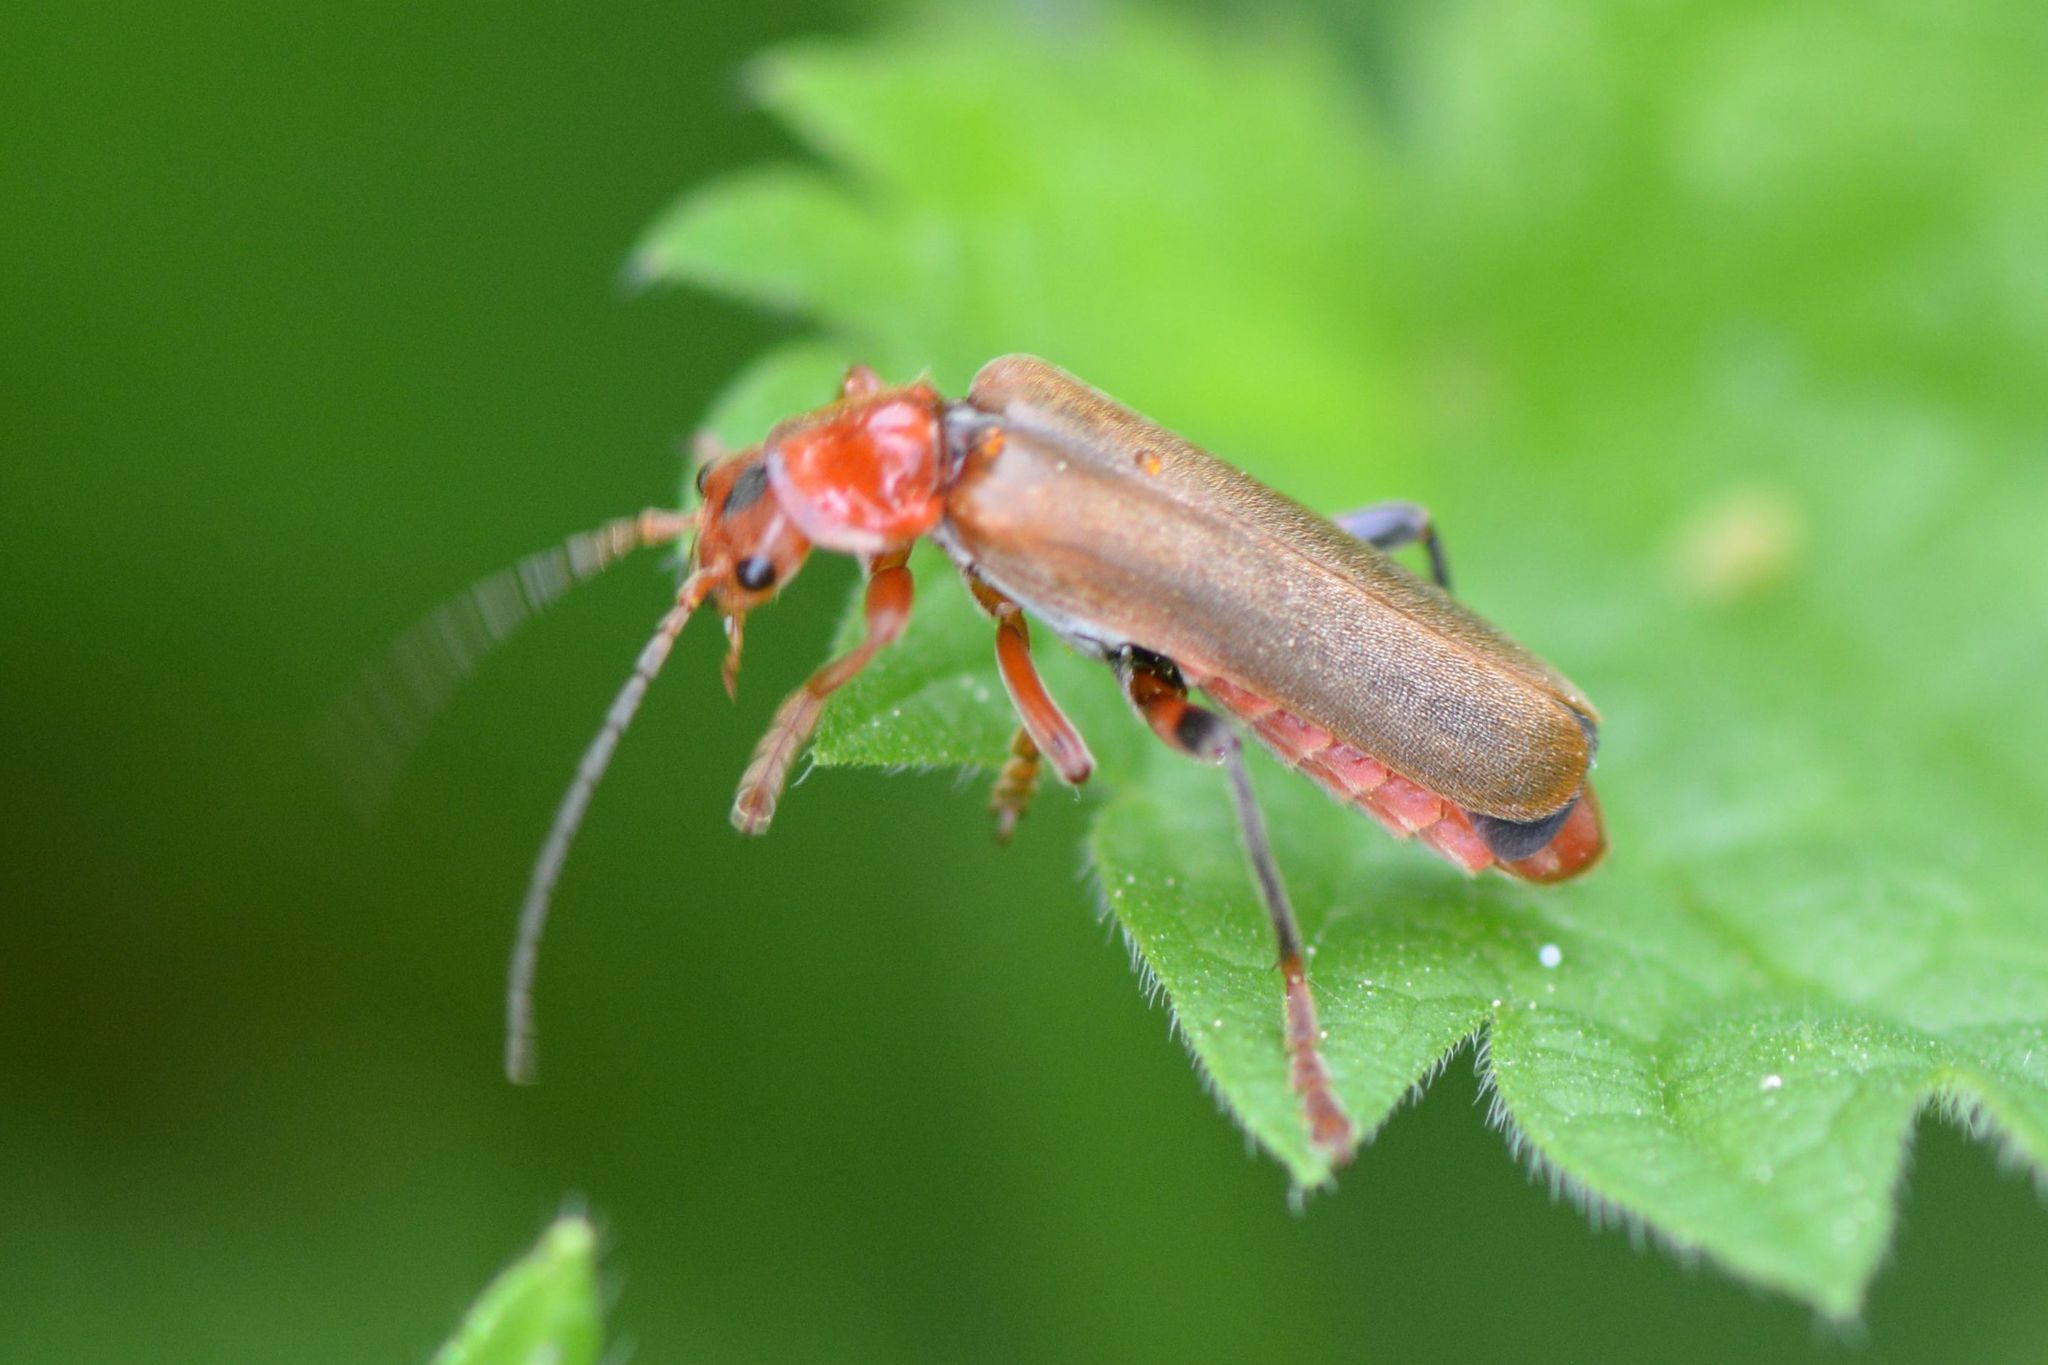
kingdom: Animalia
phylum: Arthropoda
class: Insecta
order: Coleoptera
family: Cantharidae
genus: Cantharis
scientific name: Cantharis livida
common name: Livid soldier beetle
